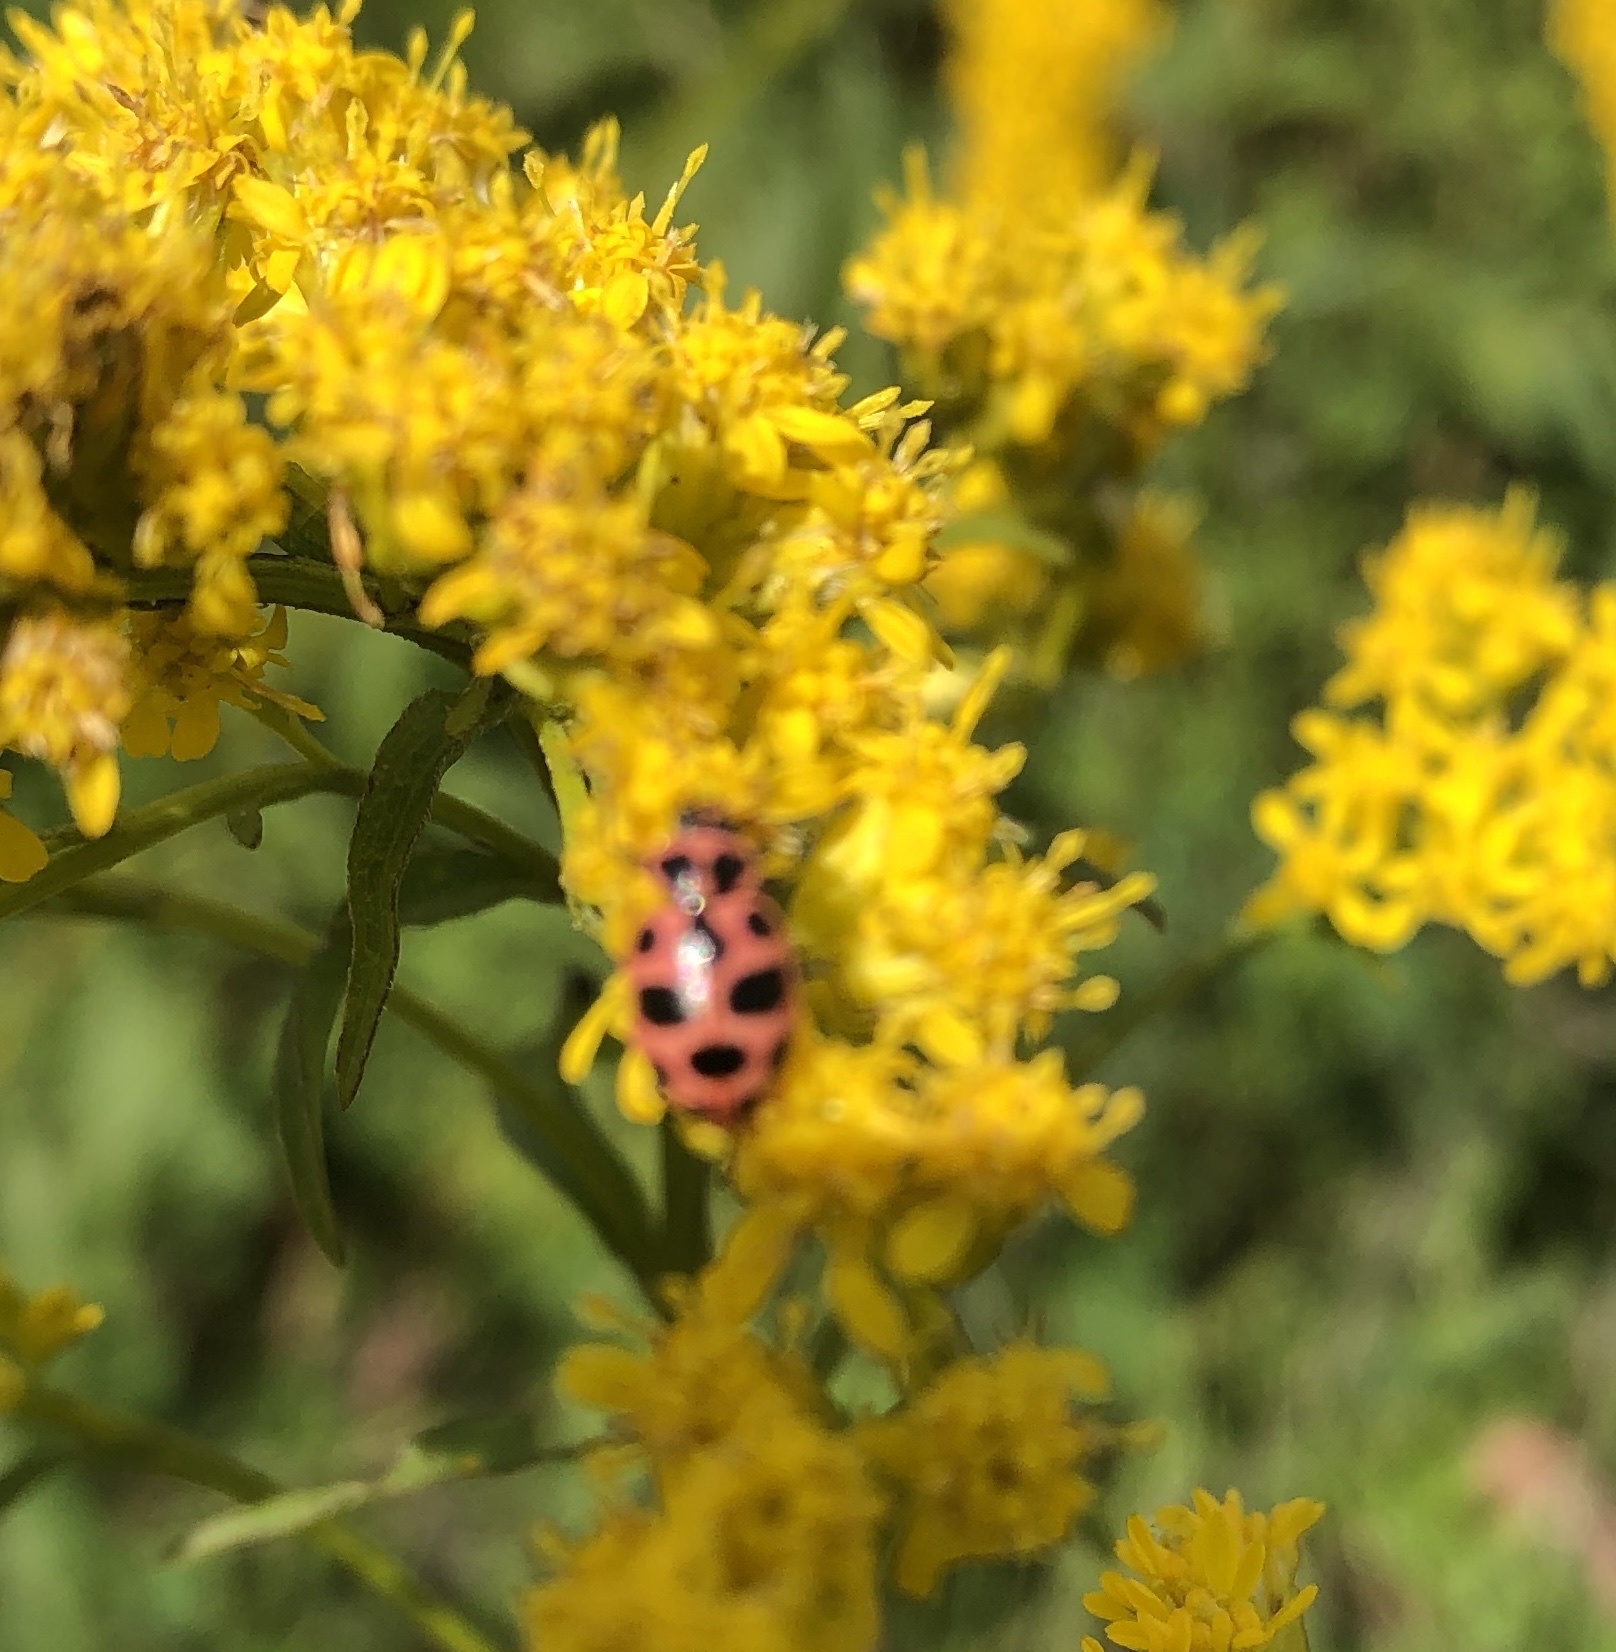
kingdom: Animalia
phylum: Arthropoda
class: Insecta
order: Coleoptera
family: Coccinellidae
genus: Coleomegilla
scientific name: Coleomegilla maculata
